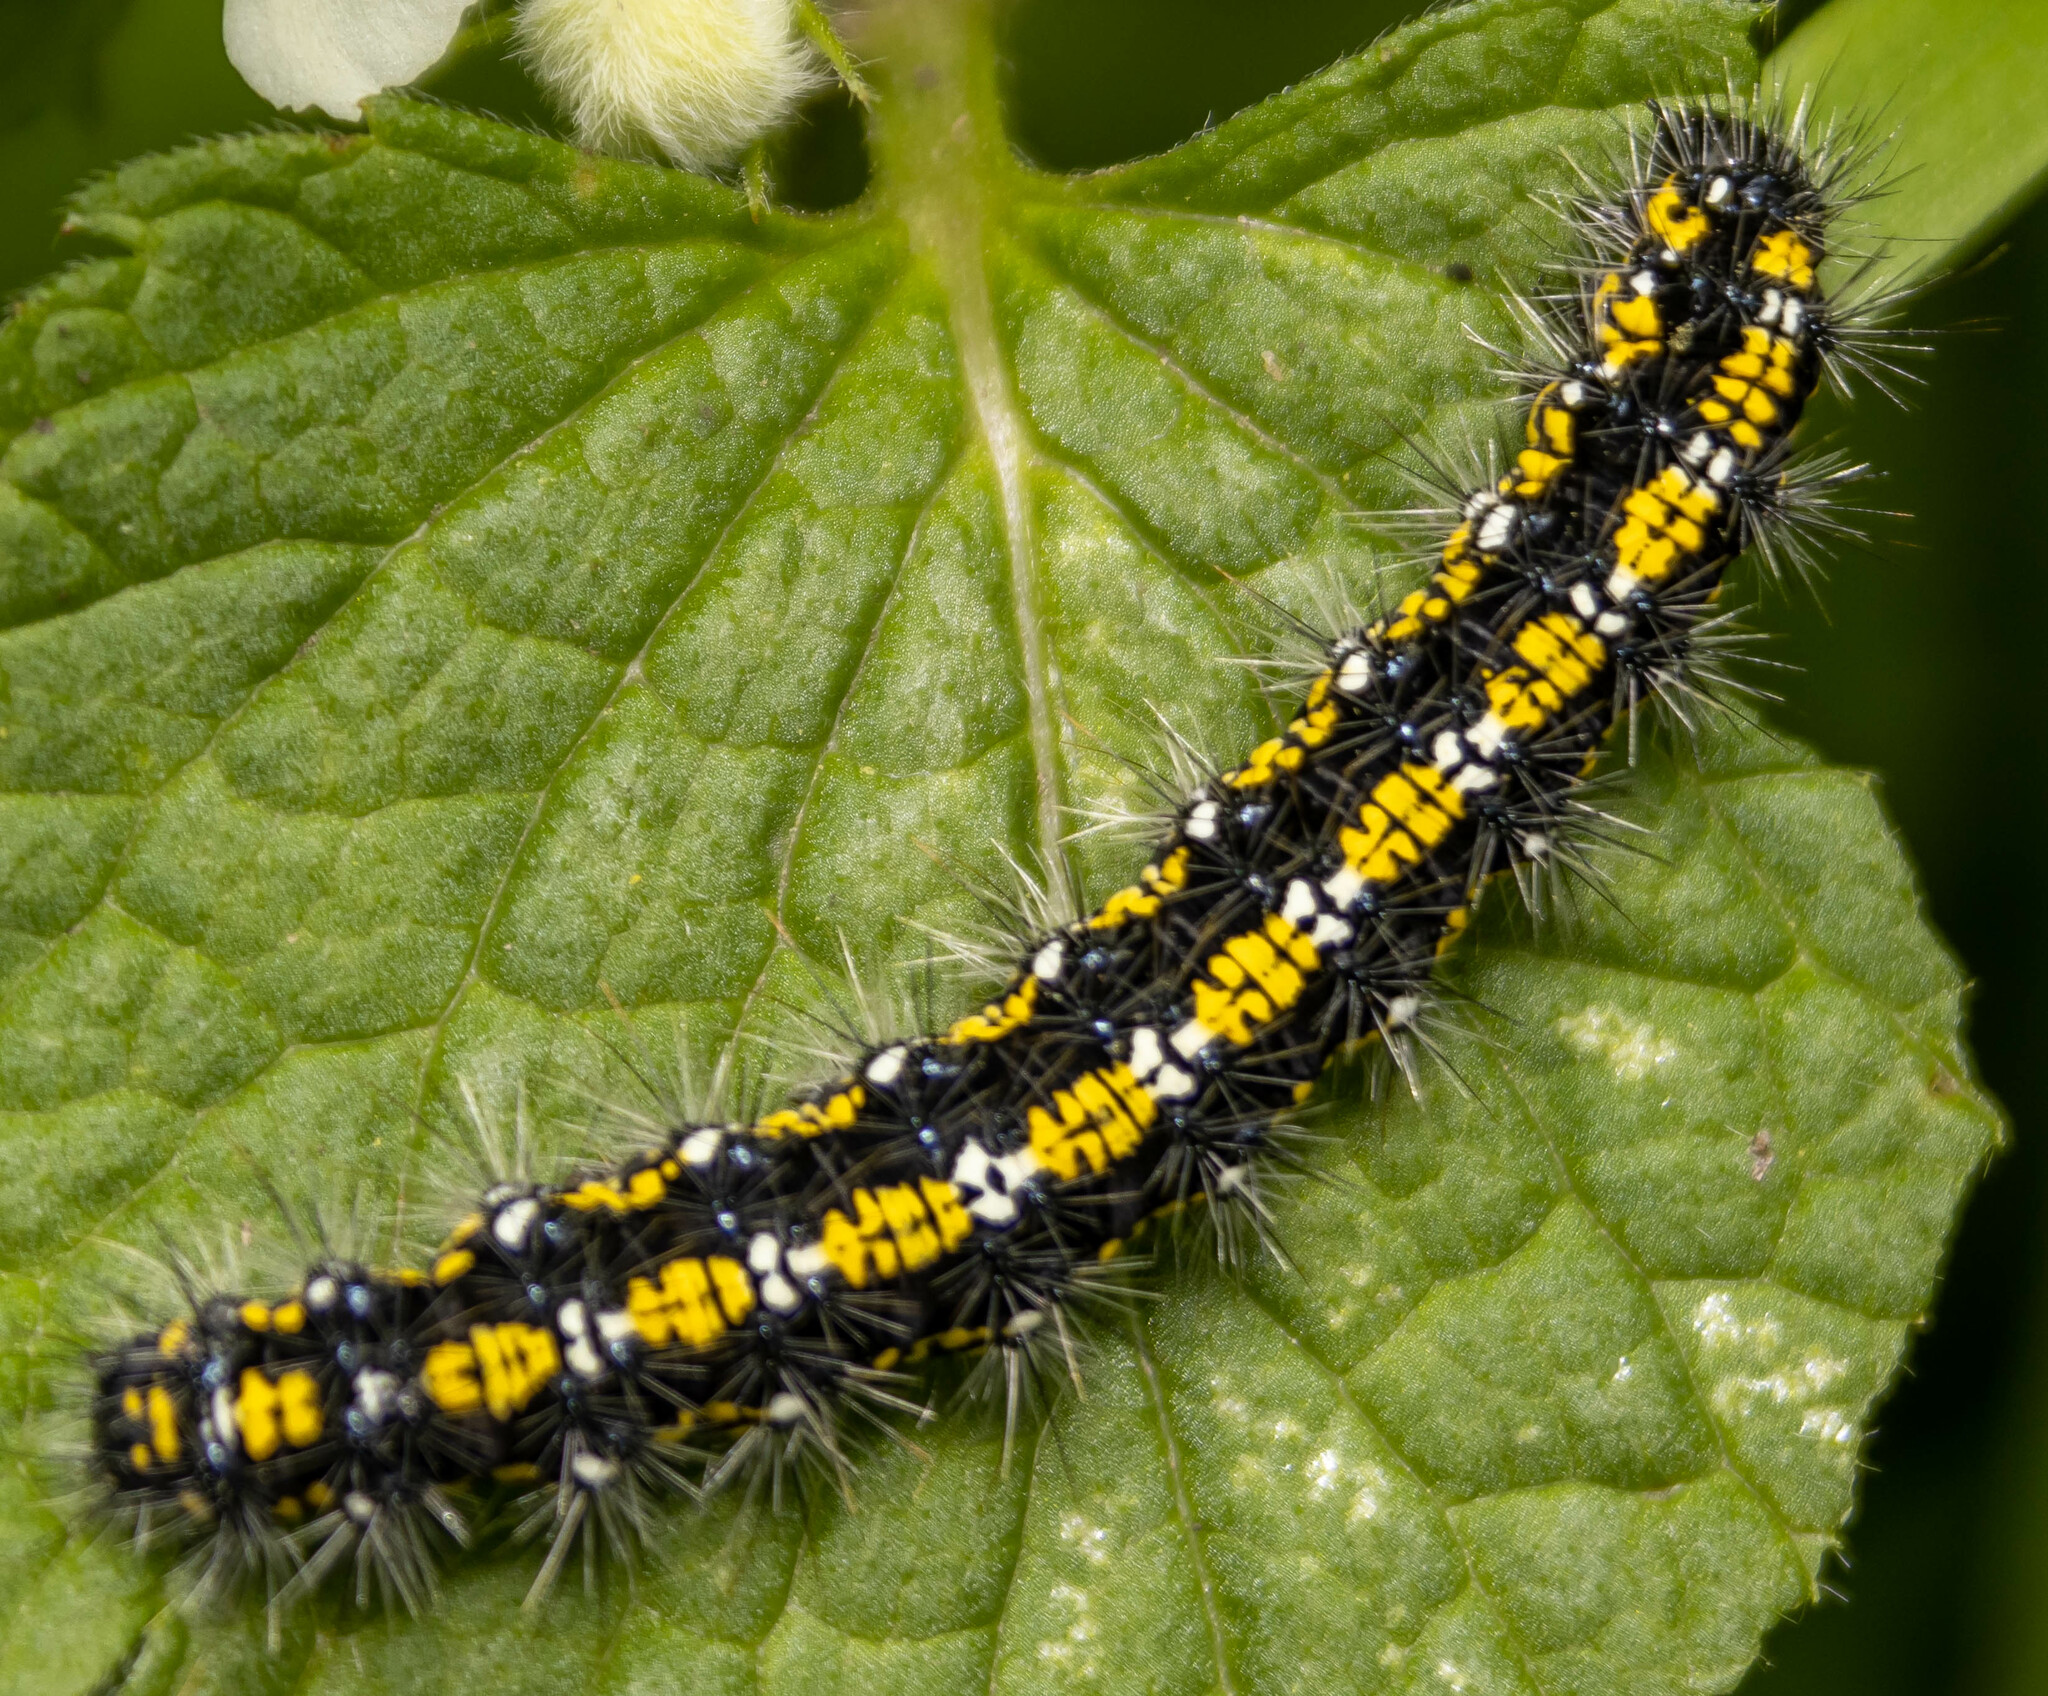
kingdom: Animalia
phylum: Arthropoda
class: Insecta
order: Lepidoptera
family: Erebidae
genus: Callimorpha
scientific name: Callimorpha dominula
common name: Scarlet tiger
